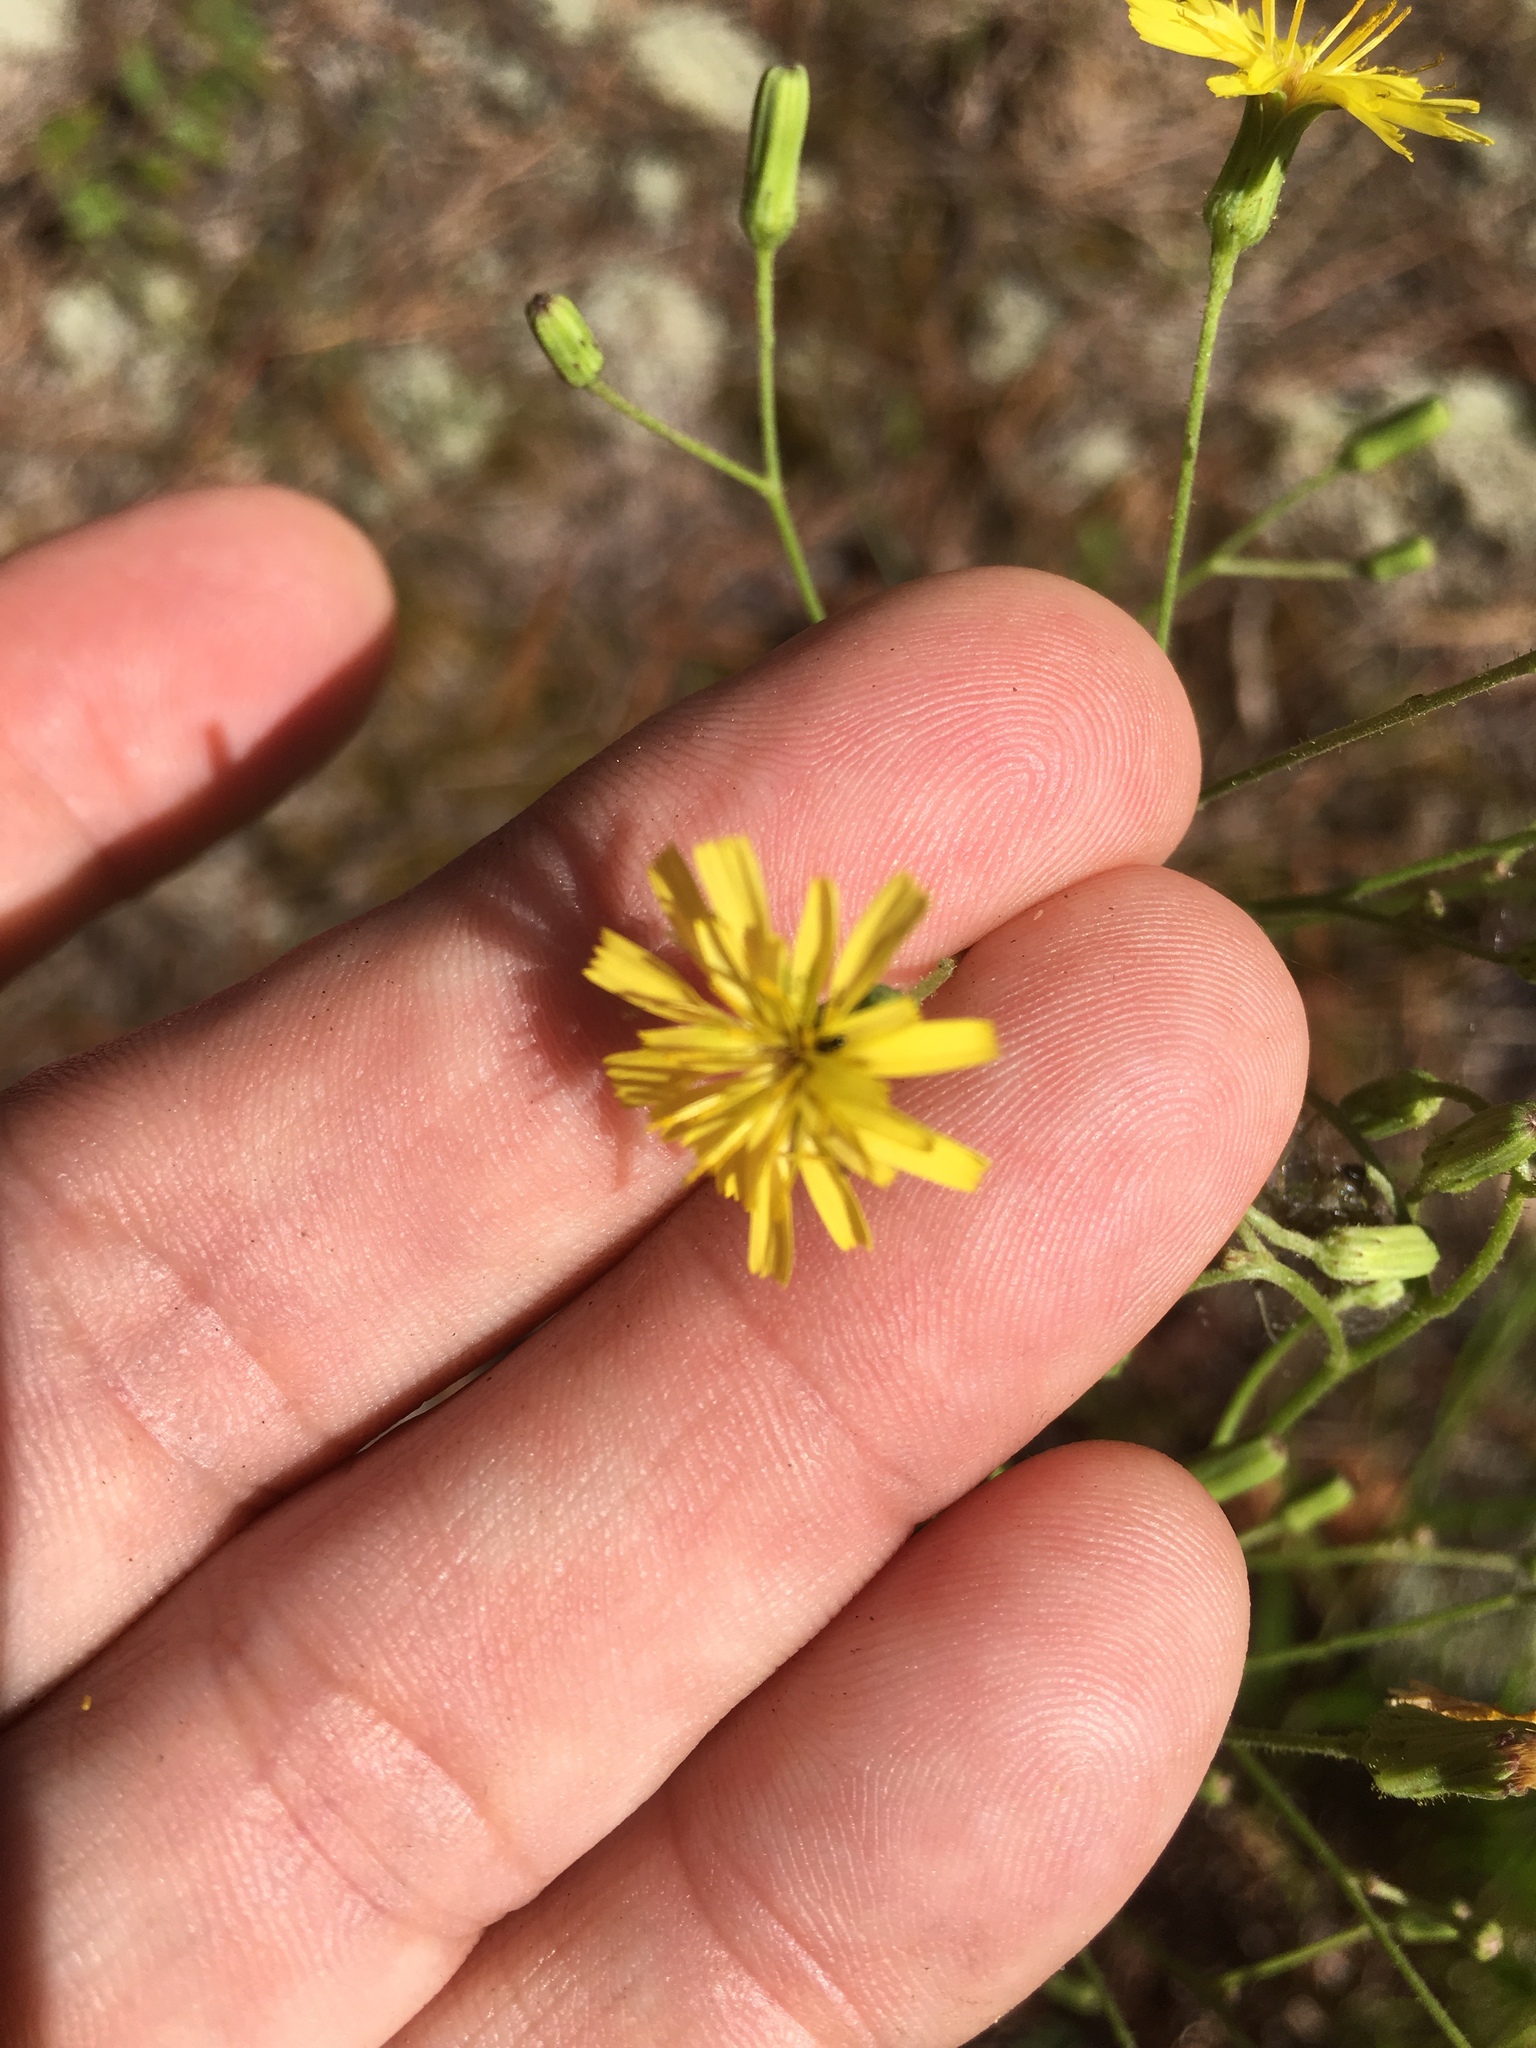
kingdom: Plantae
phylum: Tracheophyta
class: Magnoliopsida
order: Asterales
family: Asteraceae
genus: Hieracium
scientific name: Hieracium gronovii
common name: Beaked hawkweed
